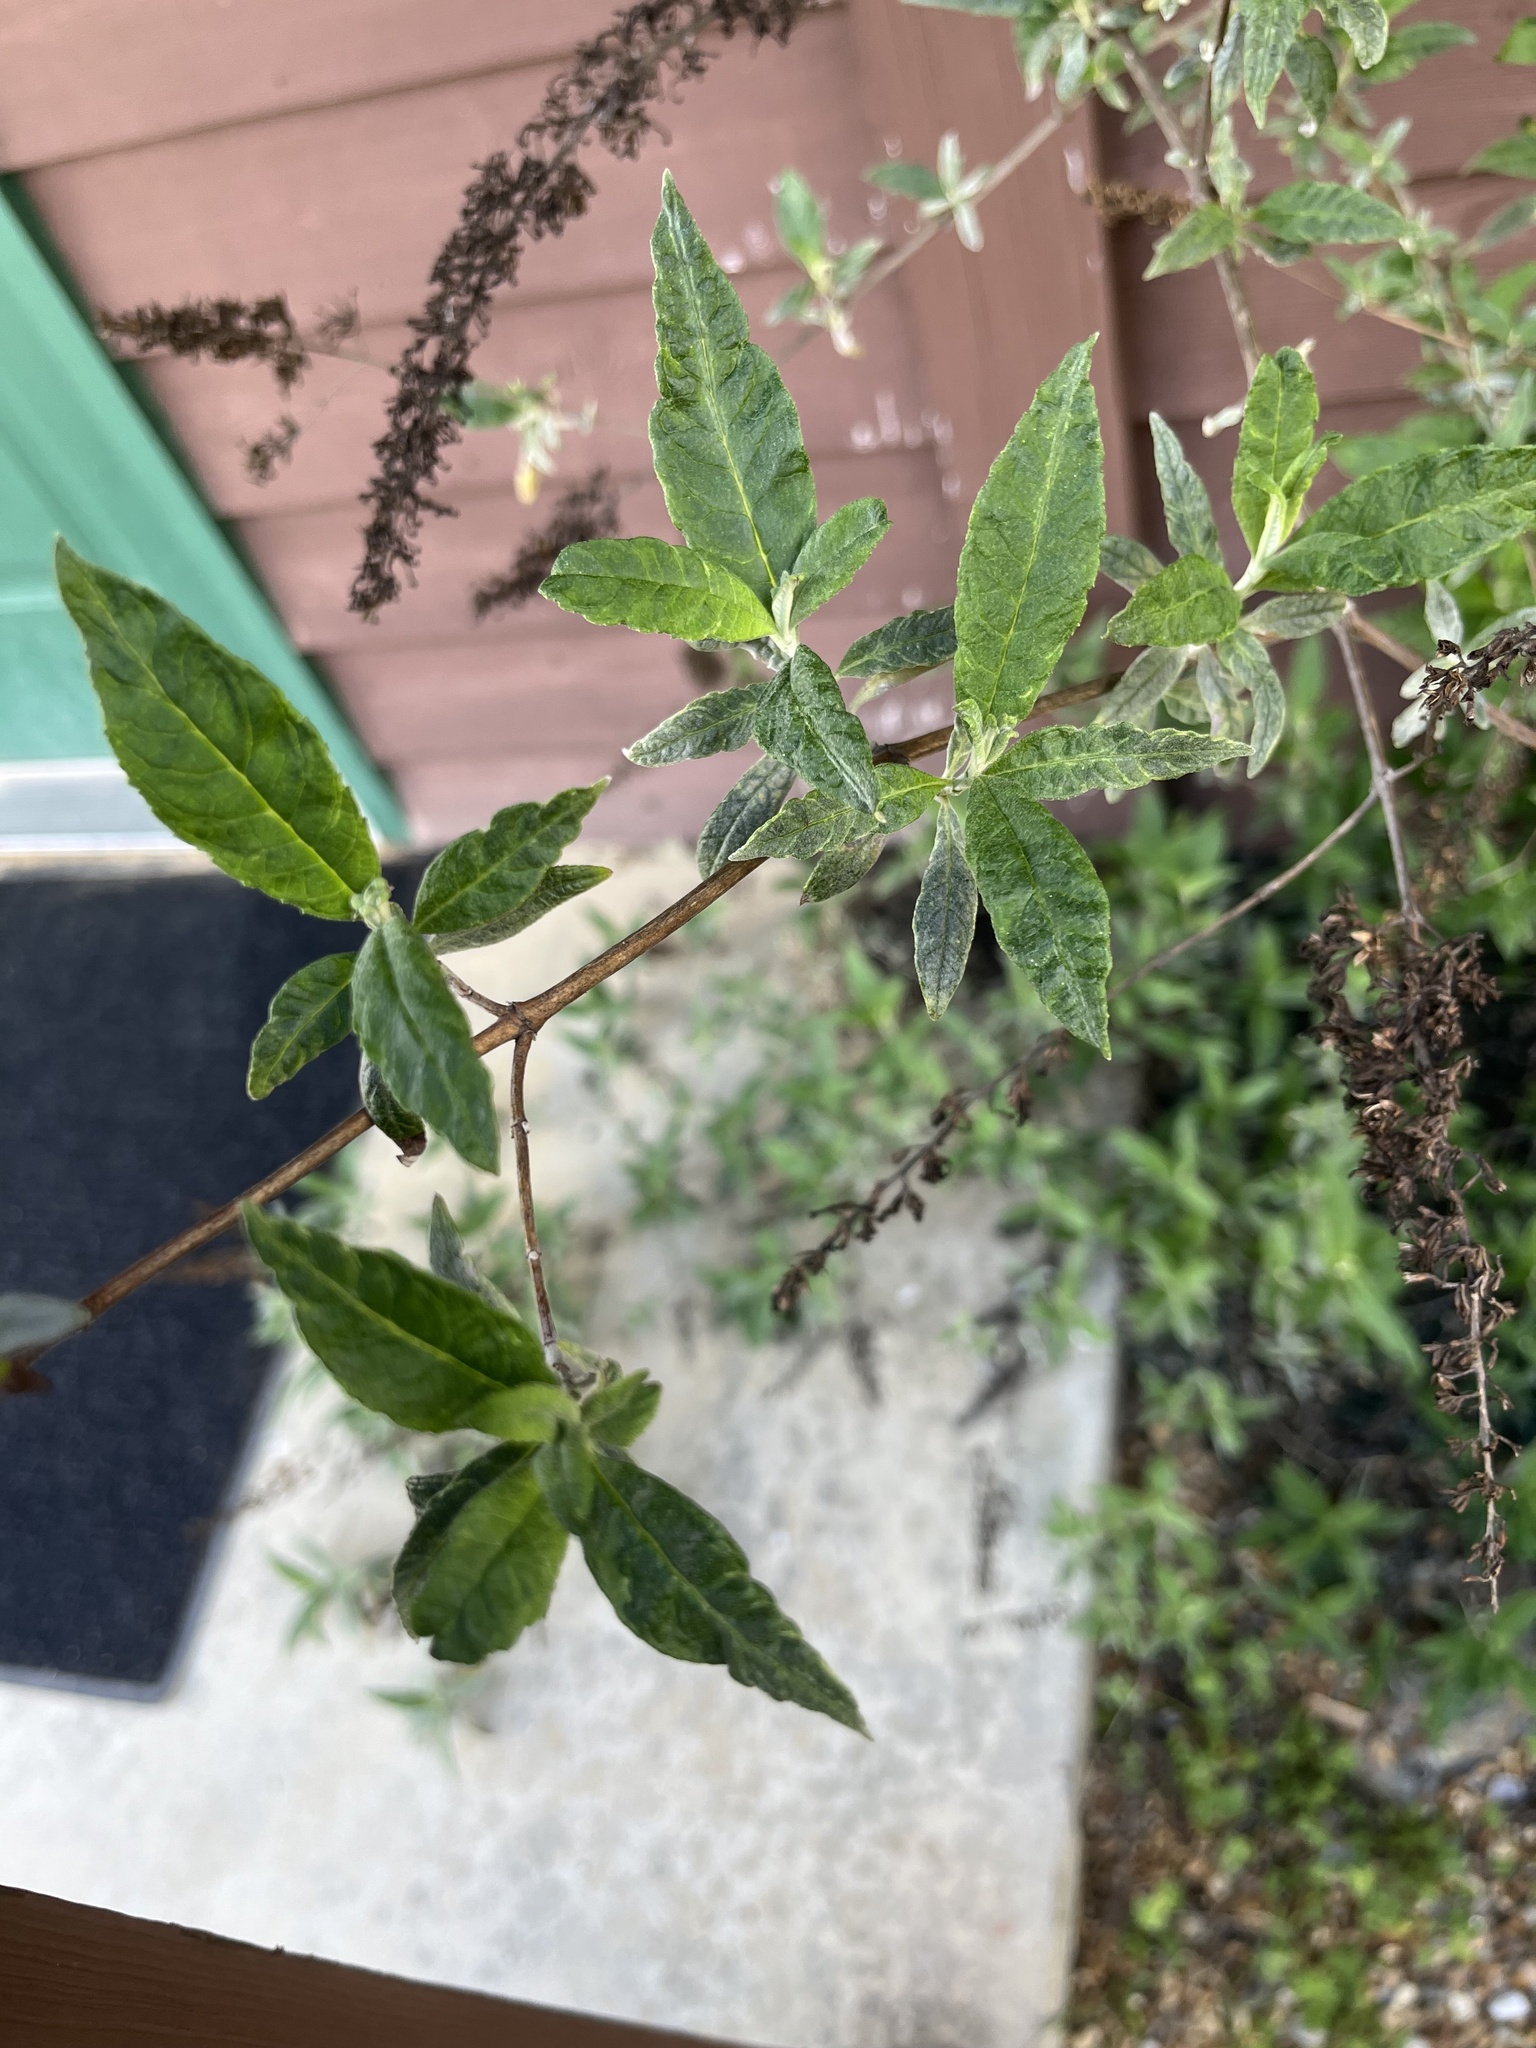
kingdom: Plantae
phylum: Tracheophyta
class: Magnoliopsida
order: Lamiales
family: Scrophulariaceae
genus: Buddleja
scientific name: Buddleja davidii
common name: Butterfly-bush
